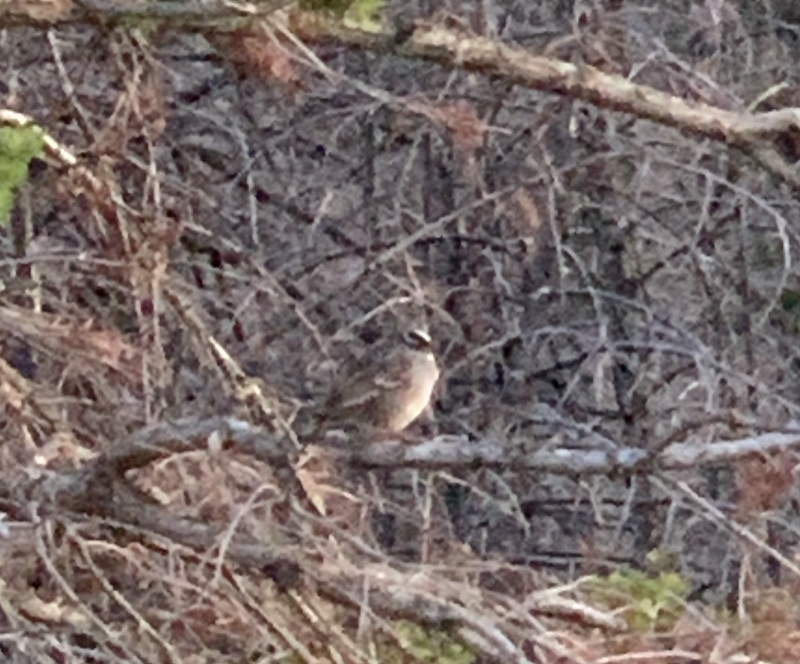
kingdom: Animalia
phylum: Chordata
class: Aves
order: Passeriformes
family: Passerellidae
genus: Zonotrichia
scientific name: Zonotrichia leucophrys
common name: White-crowned sparrow
